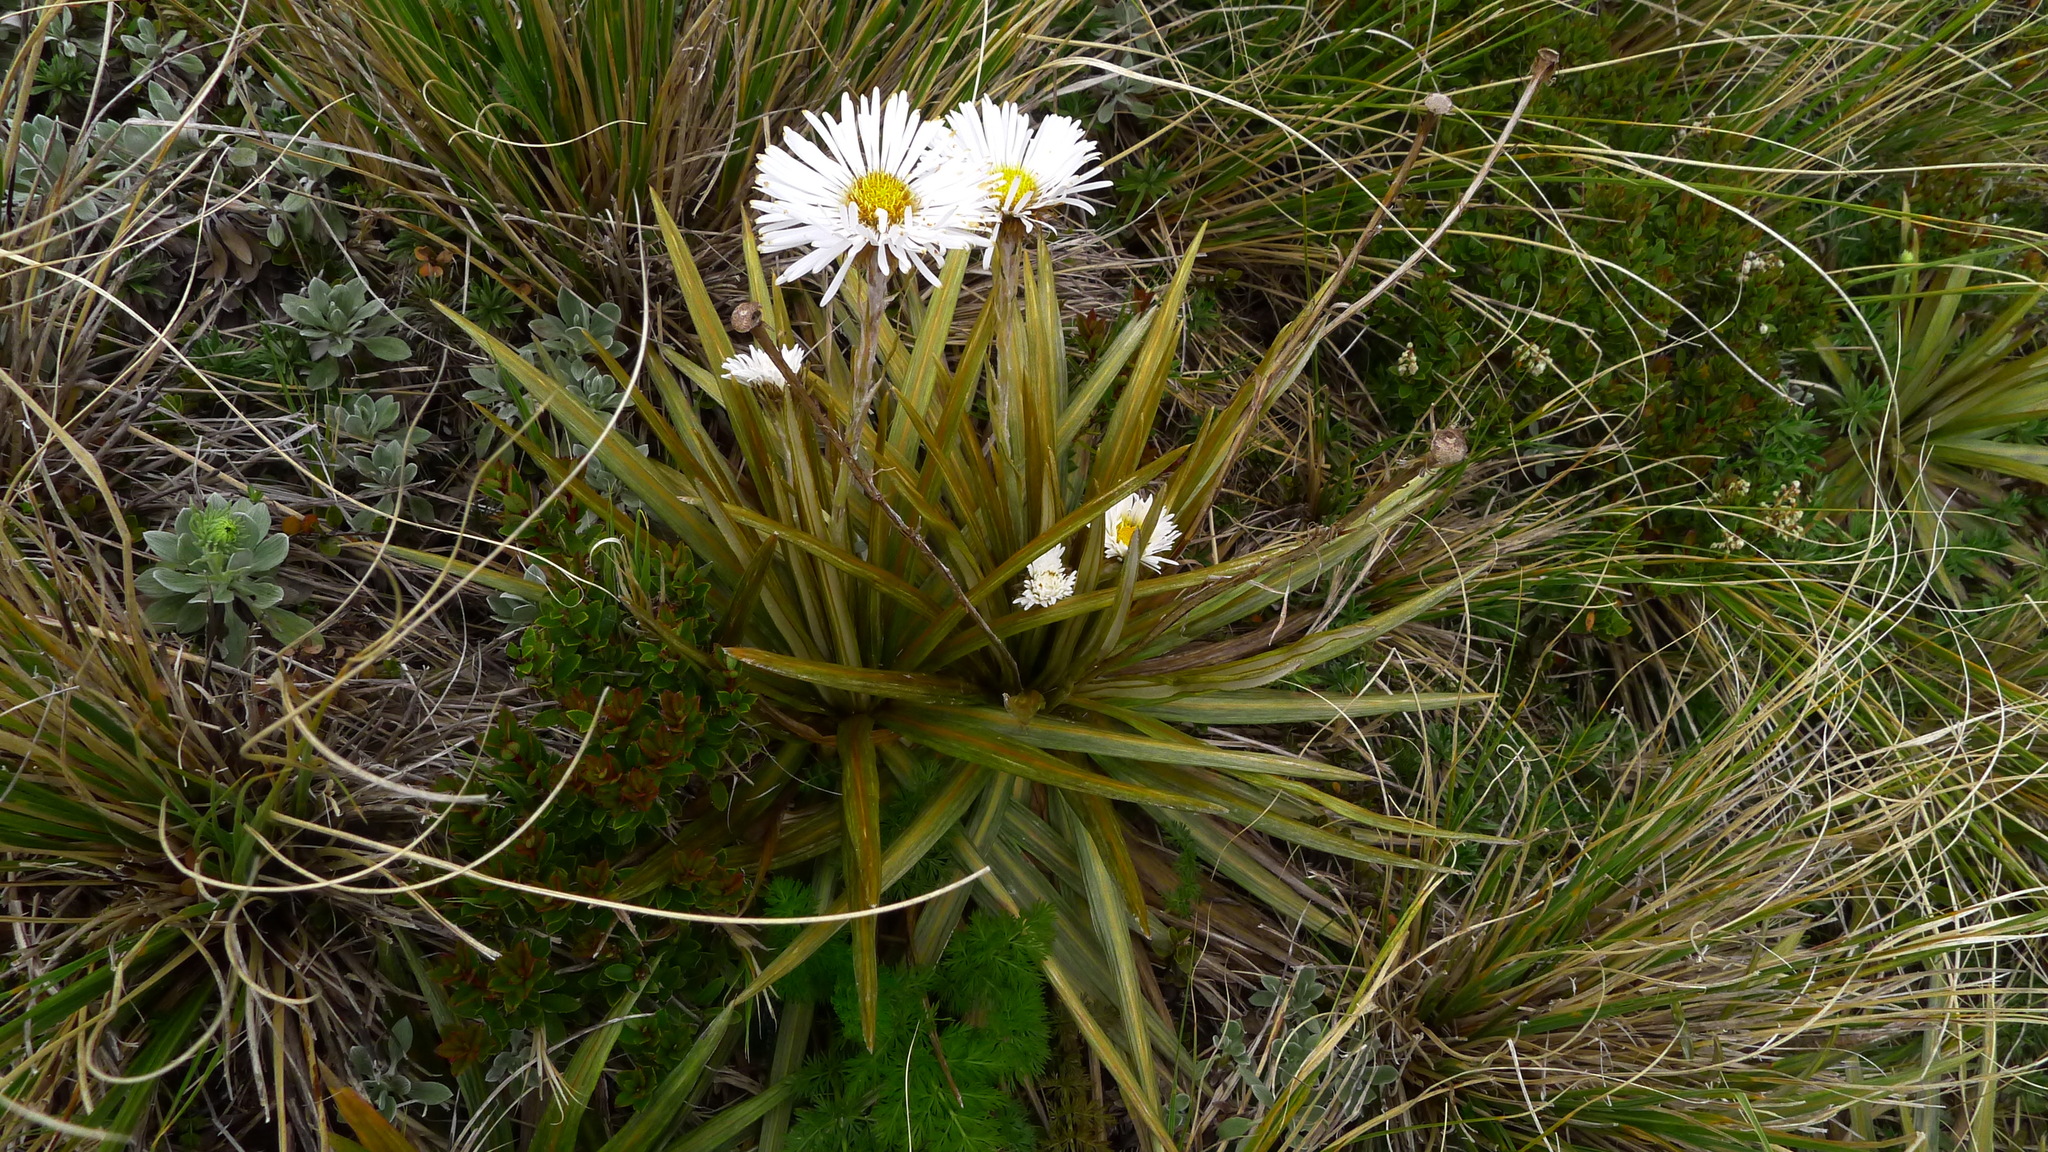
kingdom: Plantae
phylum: Tracheophyta
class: Magnoliopsida
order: Asterales
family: Asteraceae
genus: Celmisia
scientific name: Celmisia armstrongii
